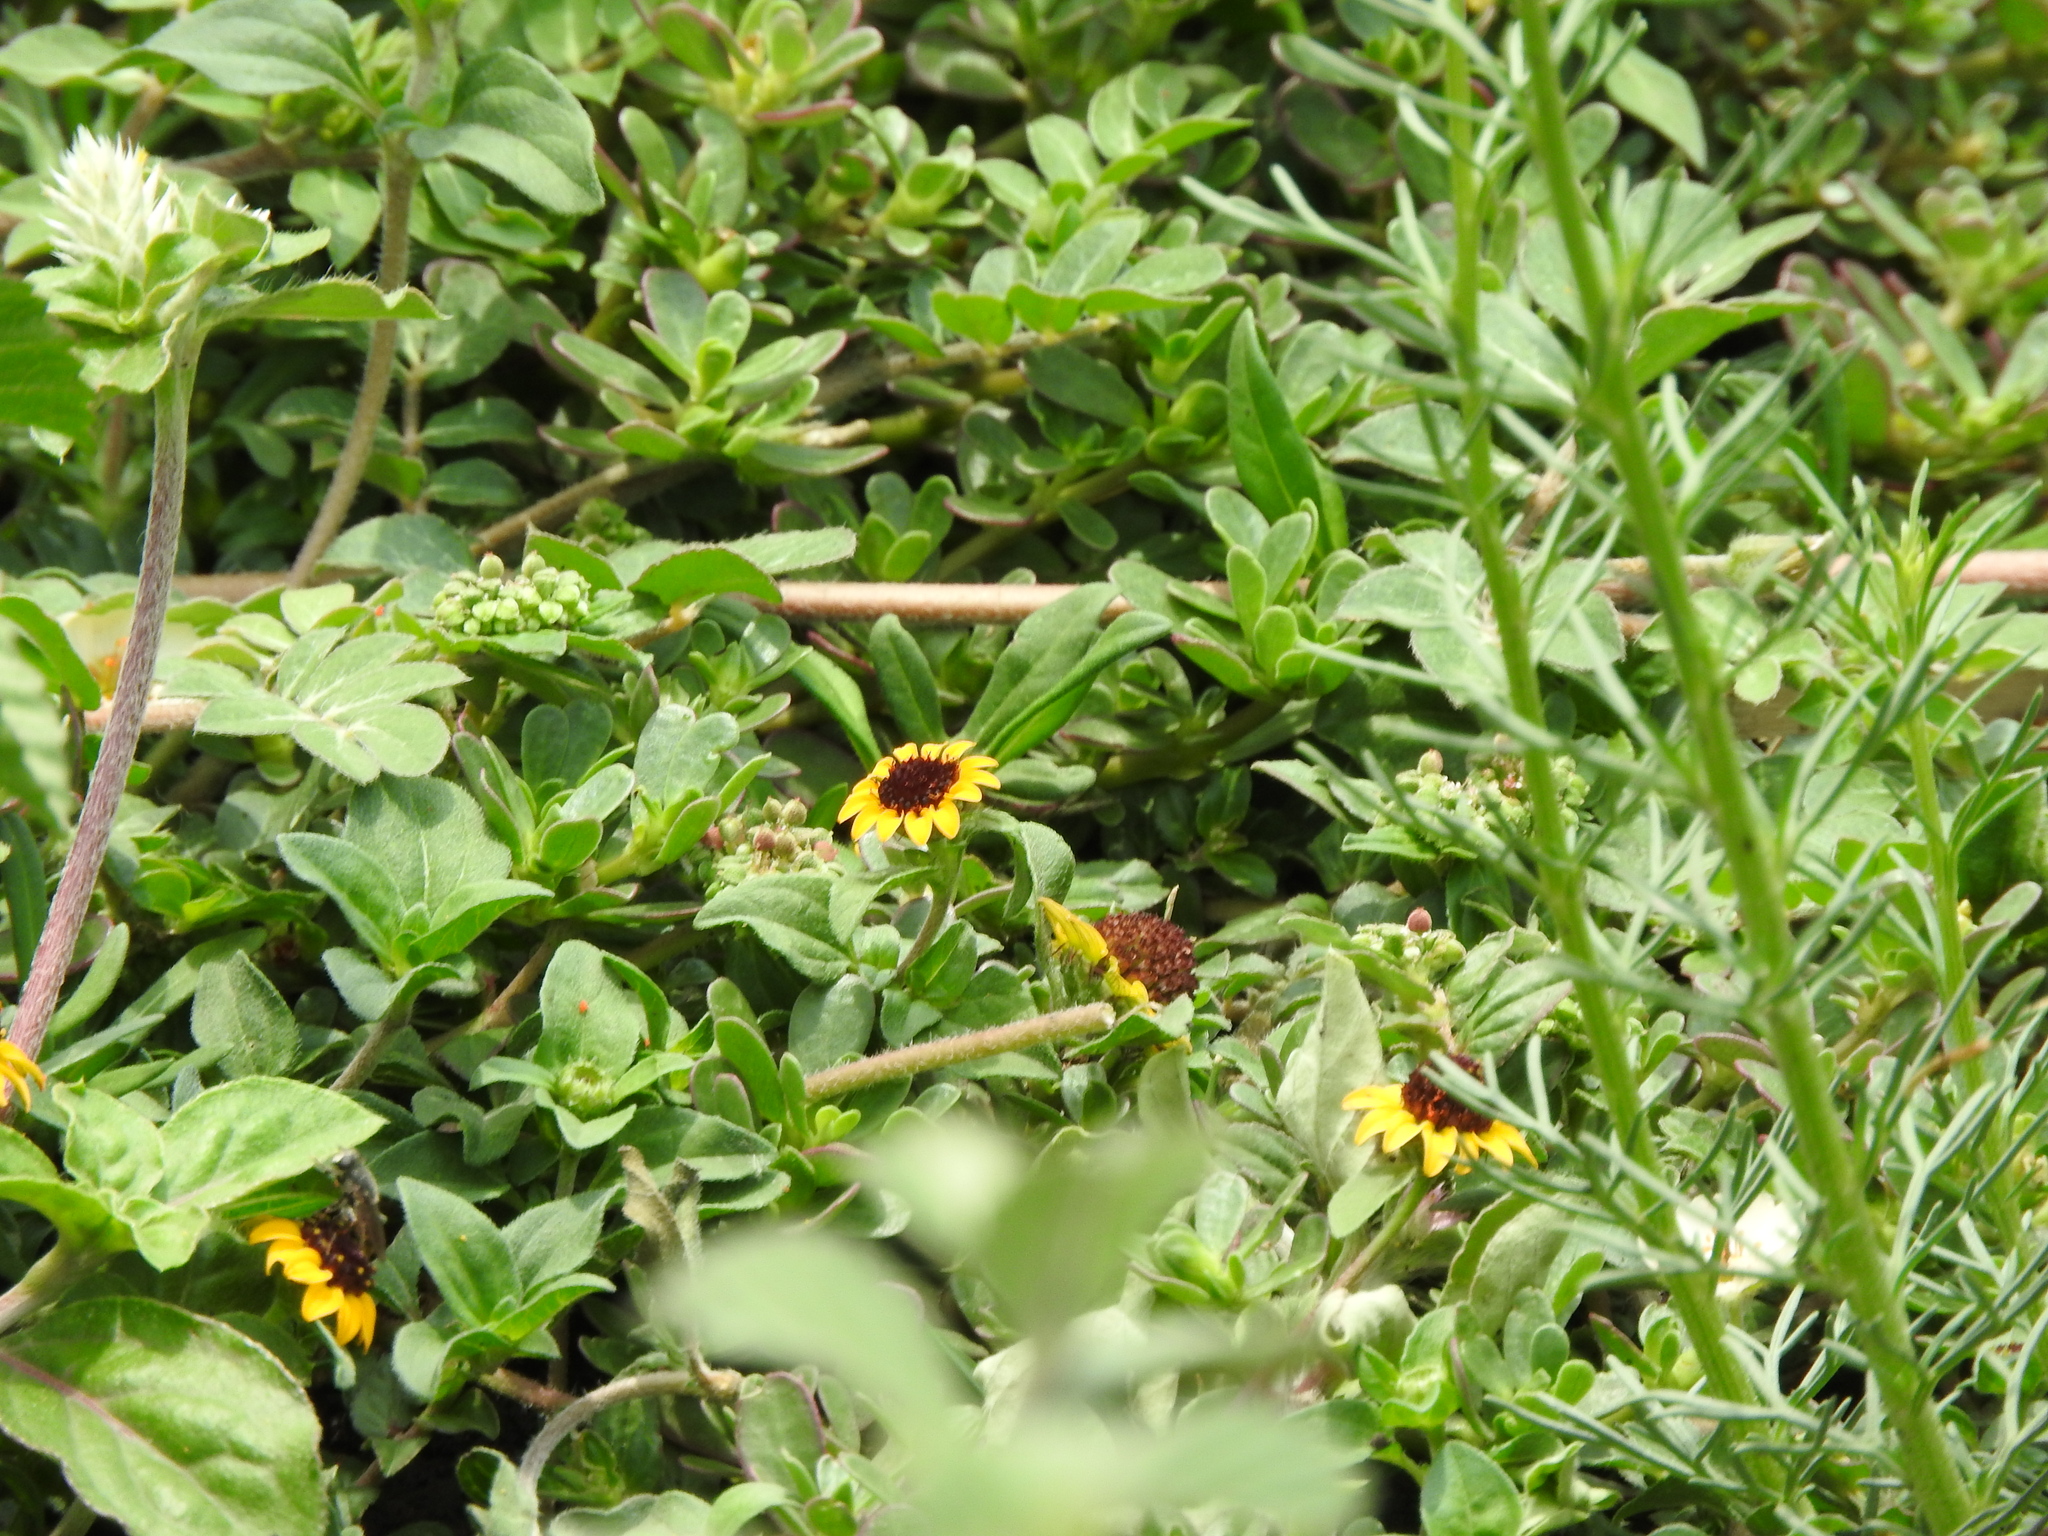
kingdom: Plantae
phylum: Tracheophyta
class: Magnoliopsida
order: Asterales
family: Asteraceae
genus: Sanvitalia
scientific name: Sanvitalia procumbens
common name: Mexican creeping zinnia
